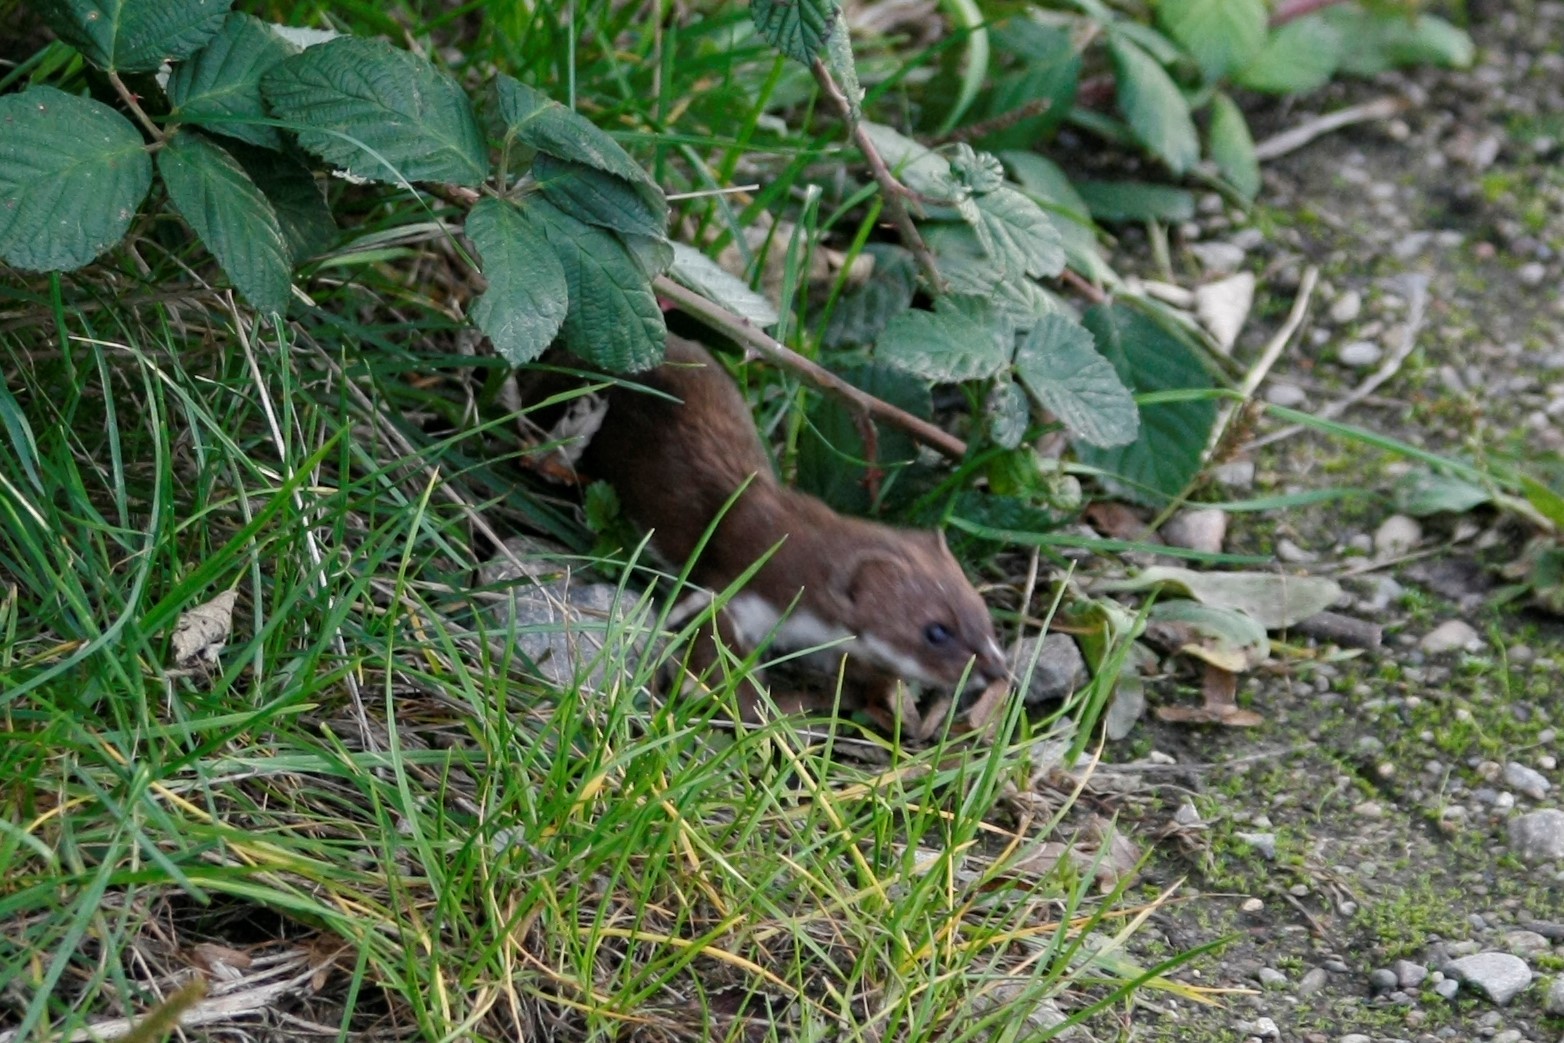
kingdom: Animalia
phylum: Chordata
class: Mammalia
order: Carnivora
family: Mustelidae
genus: Mustela
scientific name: Mustela nivalis
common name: Least weasel
